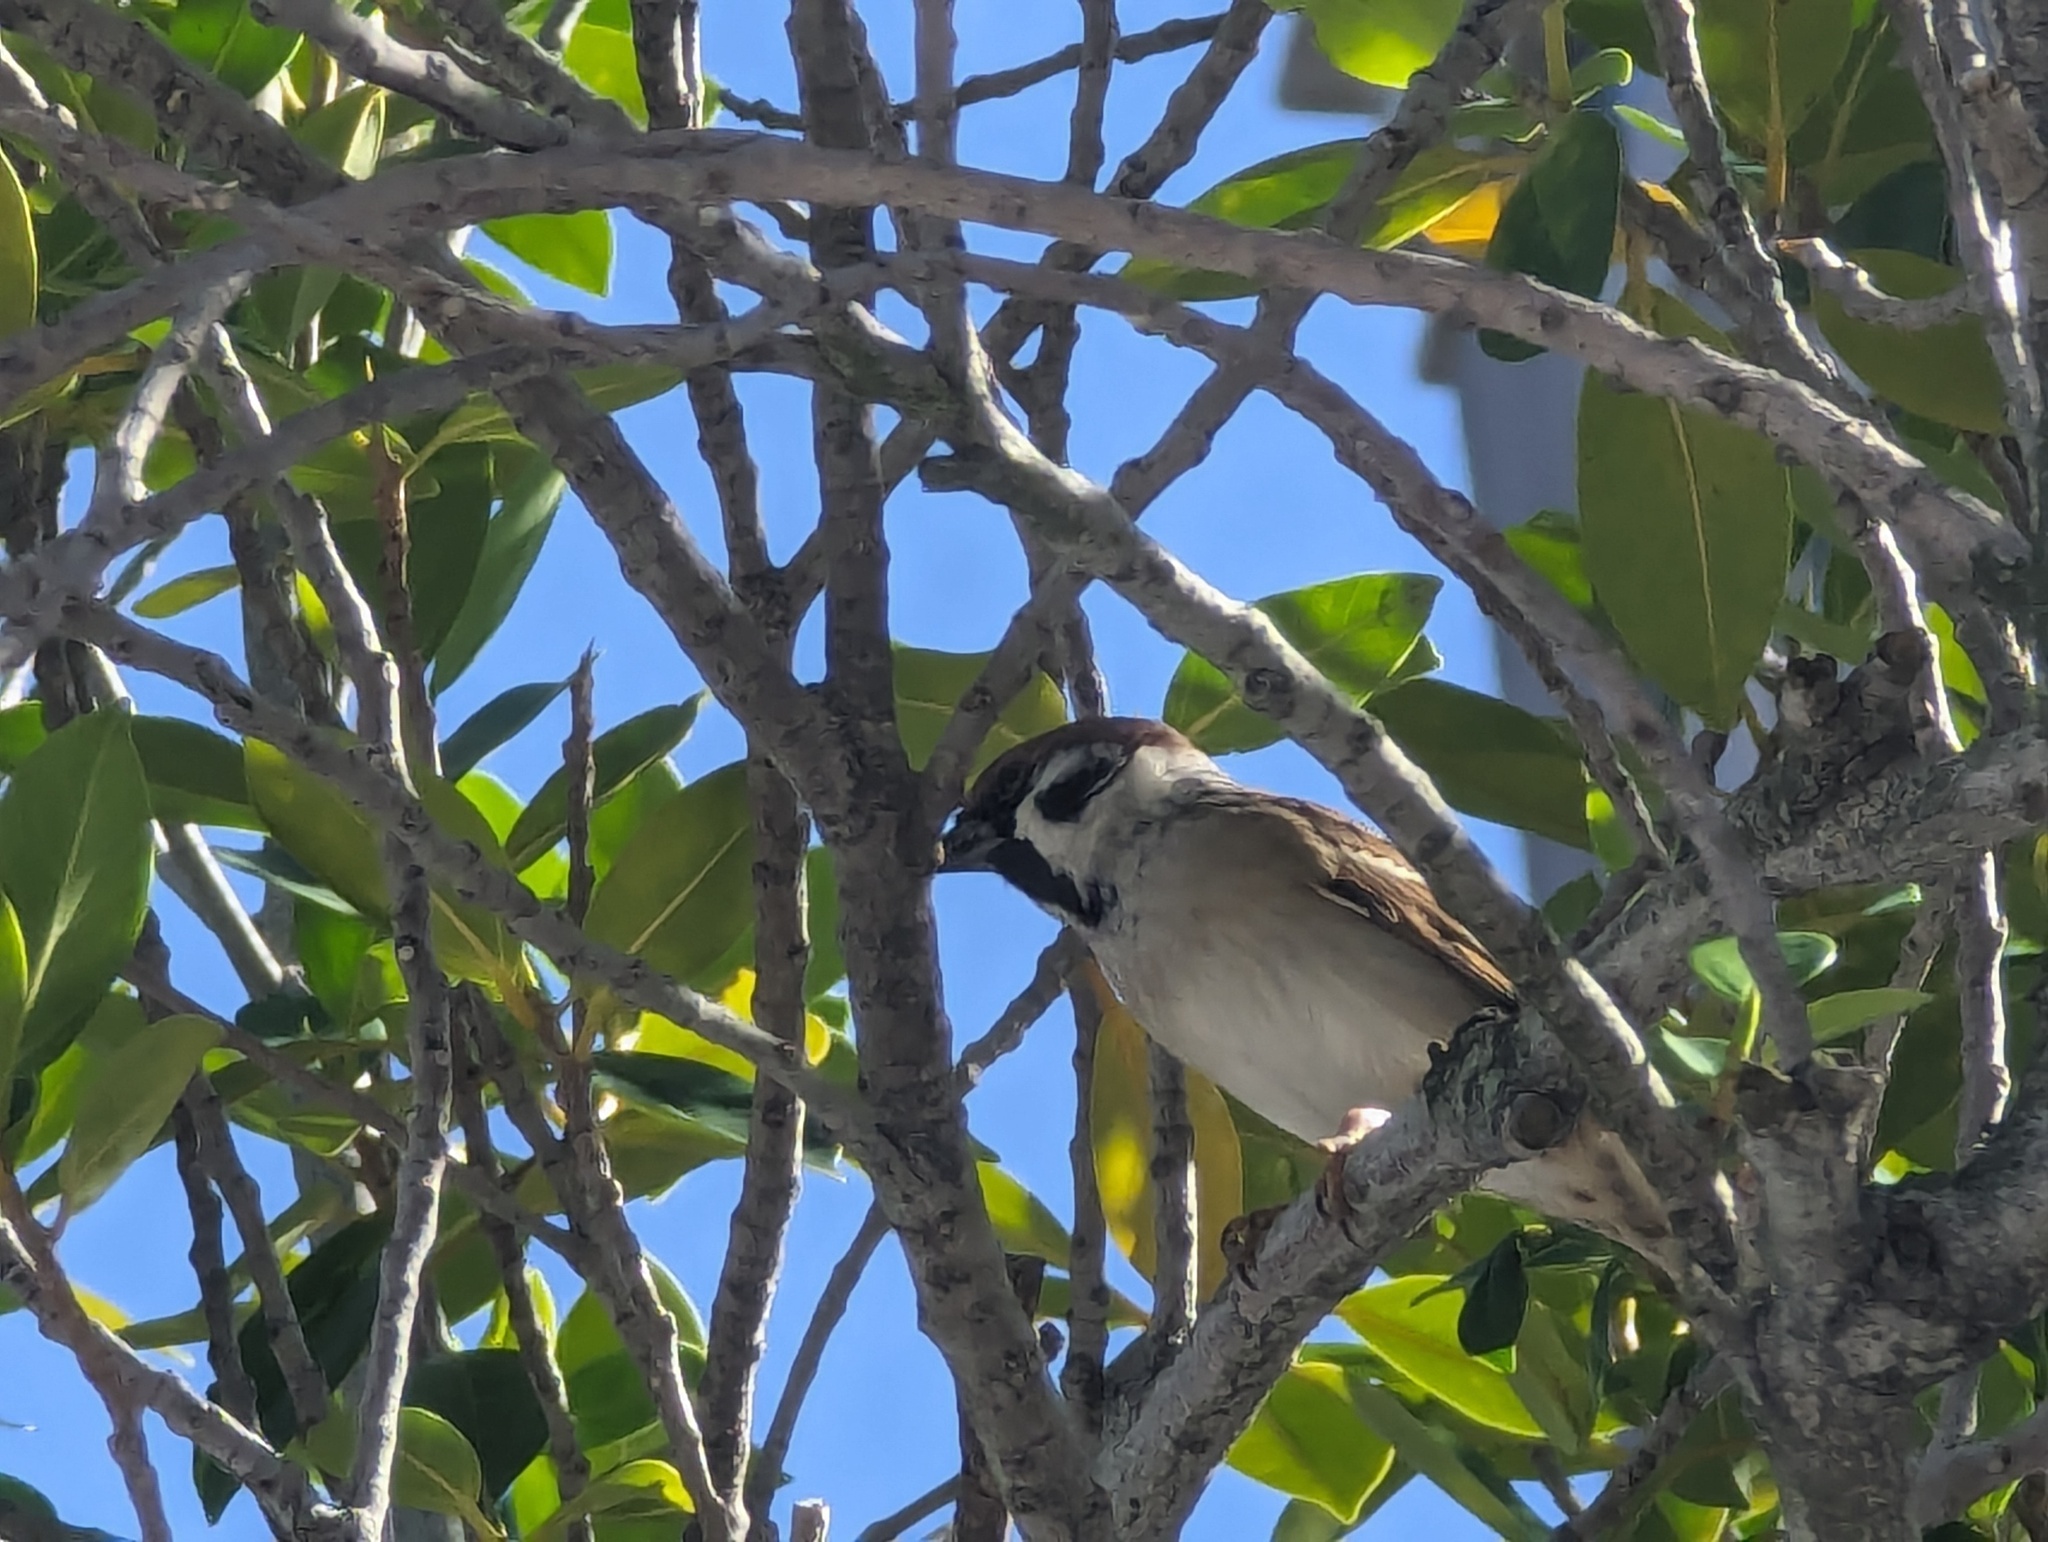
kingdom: Animalia
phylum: Chordata
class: Aves
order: Passeriformes
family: Passeridae
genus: Passer
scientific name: Passer montanus
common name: Eurasian tree sparrow
